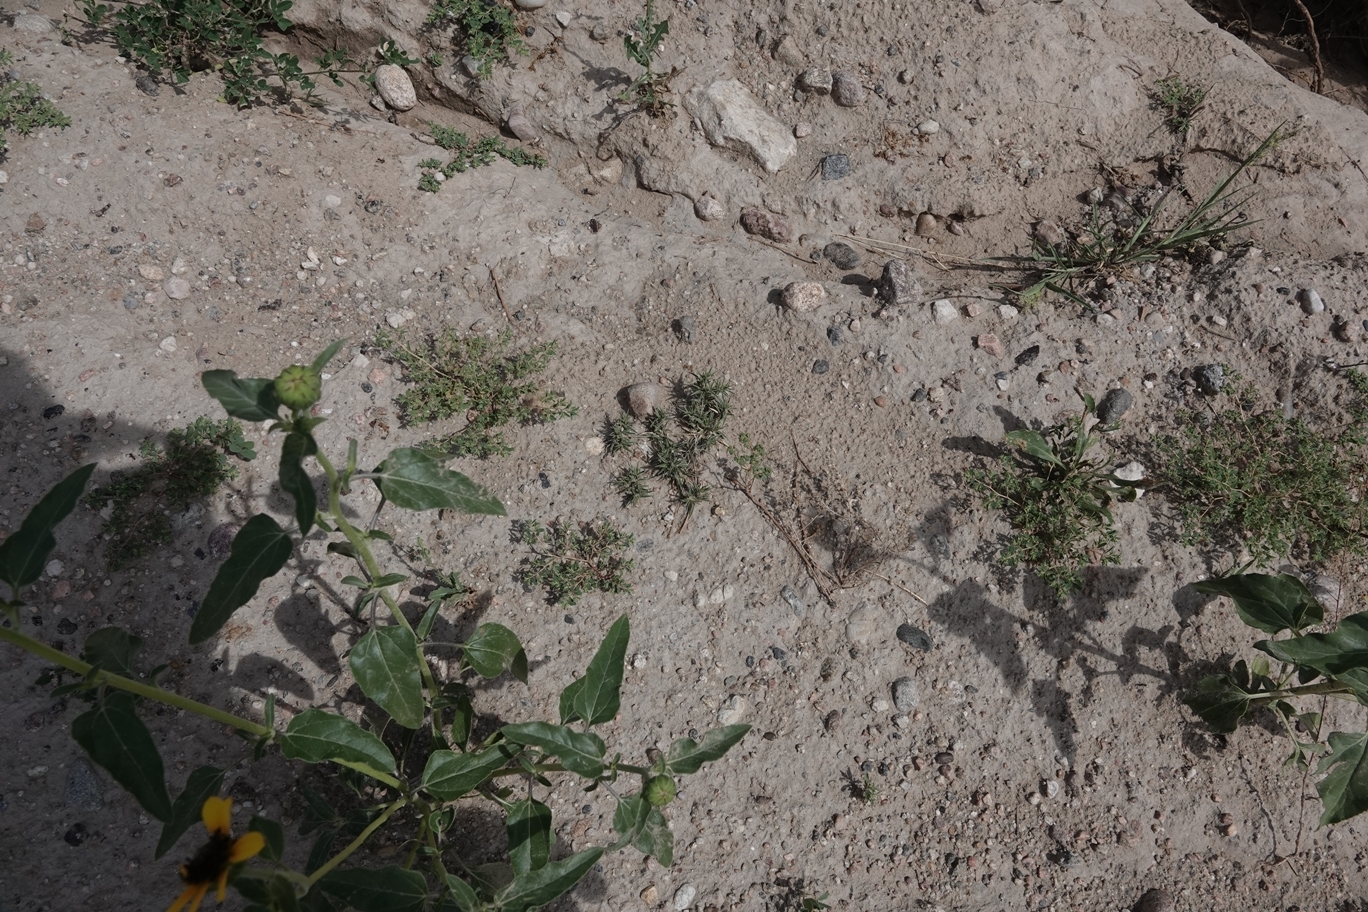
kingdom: Plantae
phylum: Tracheophyta
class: Liliopsida
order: Poales
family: Poaceae
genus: Munroa
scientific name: Munroa squarrosa
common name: False buffalo grass
